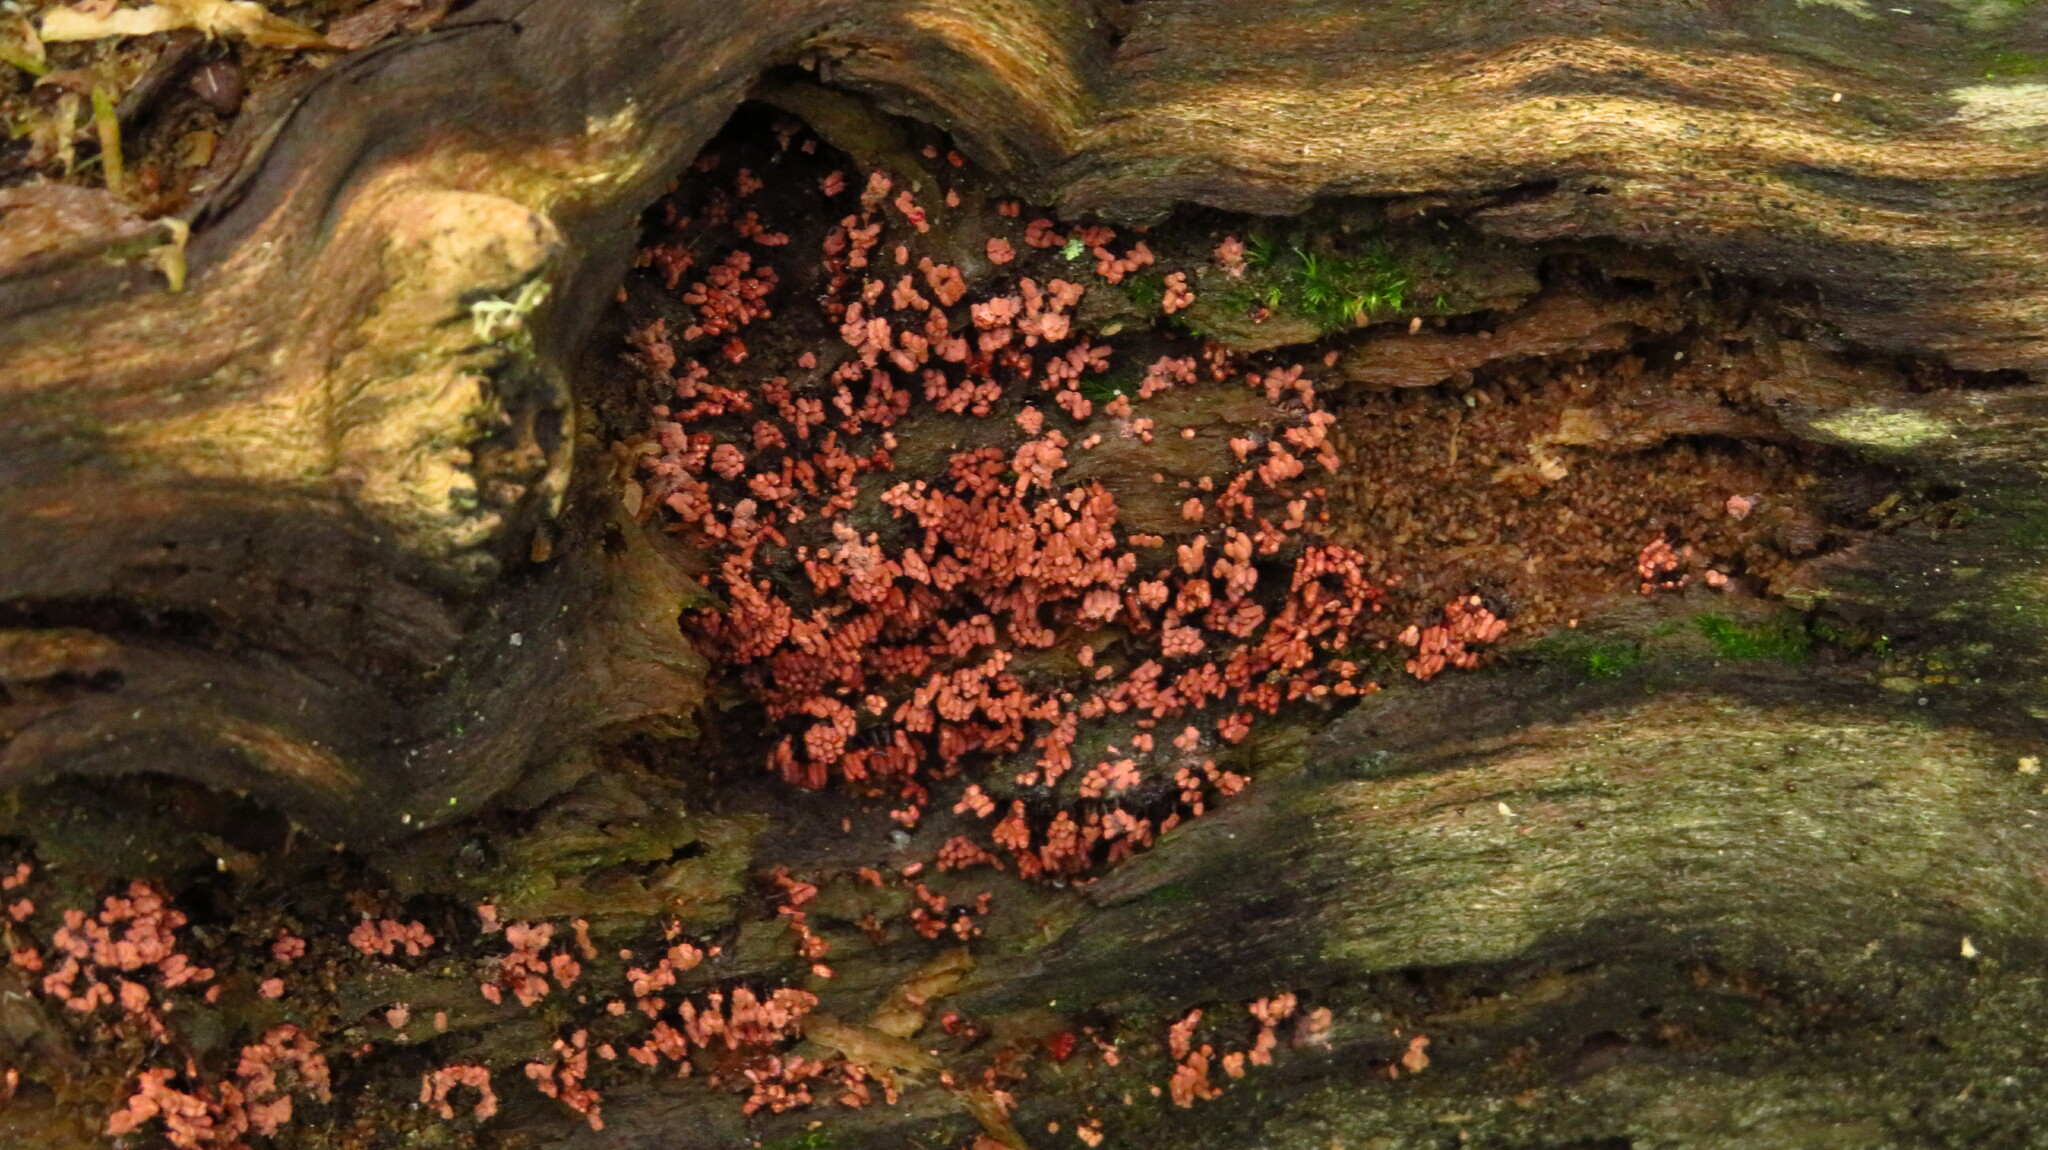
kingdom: Protozoa
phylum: Mycetozoa
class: Myxomycetes
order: Trichiales
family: Arcyriaceae
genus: Arcyria
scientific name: Arcyria
